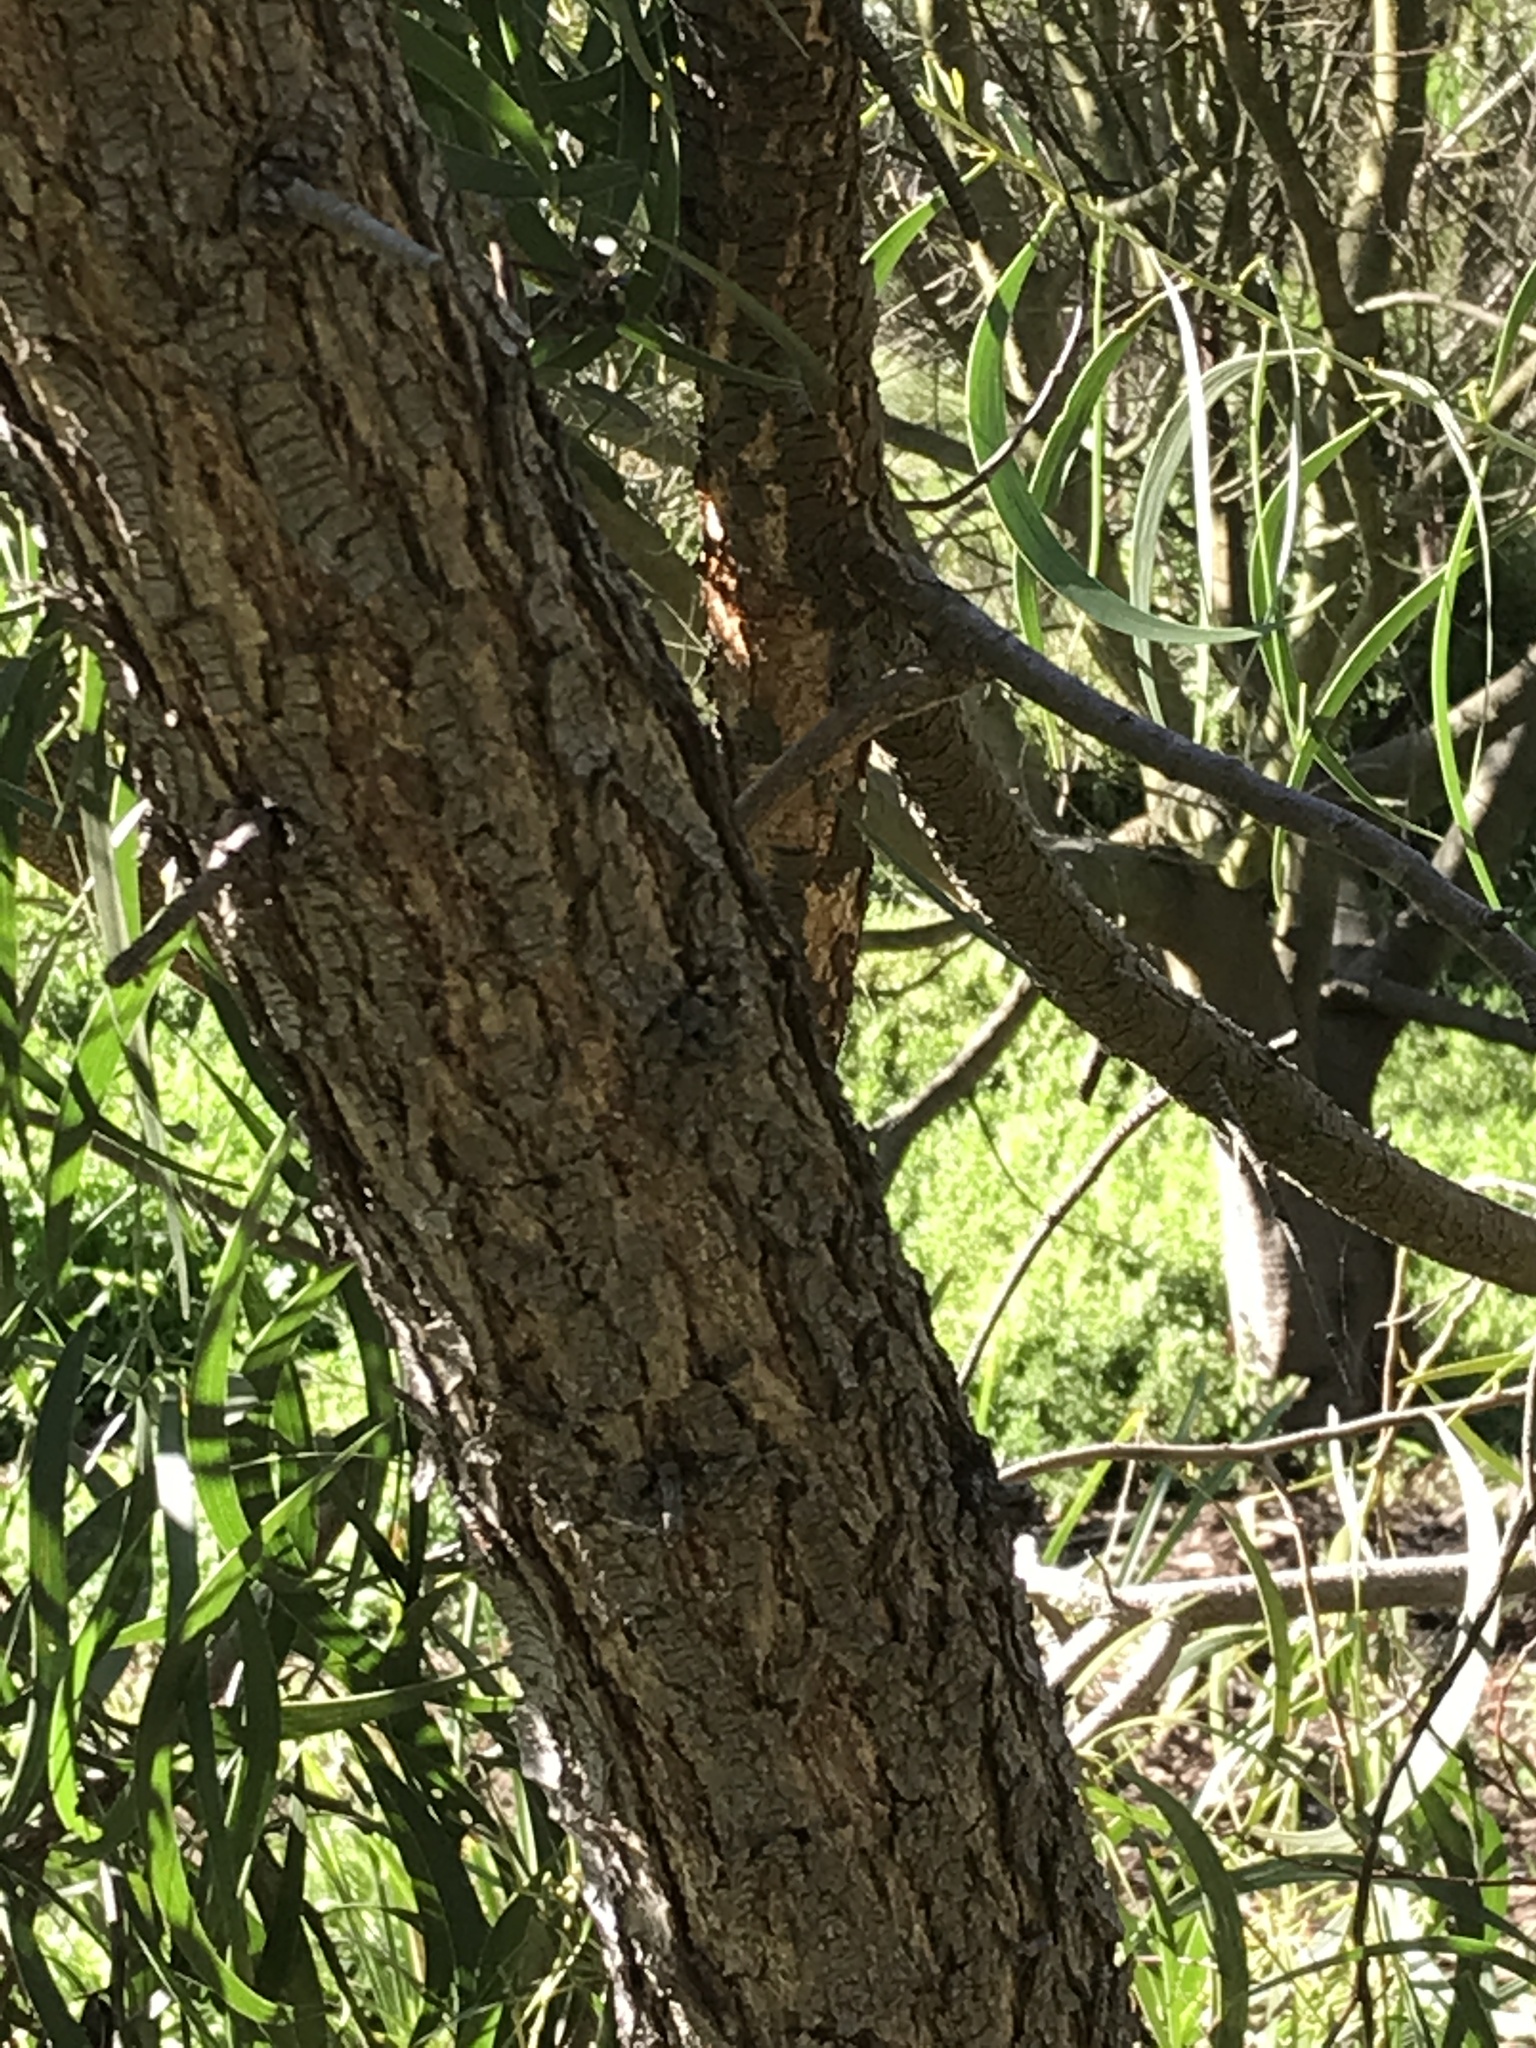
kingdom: Plantae
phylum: Tracheophyta
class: Magnoliopsida
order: Fabales
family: Fabaceae
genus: Acacia
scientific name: Acacia implexa
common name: Black wattle
